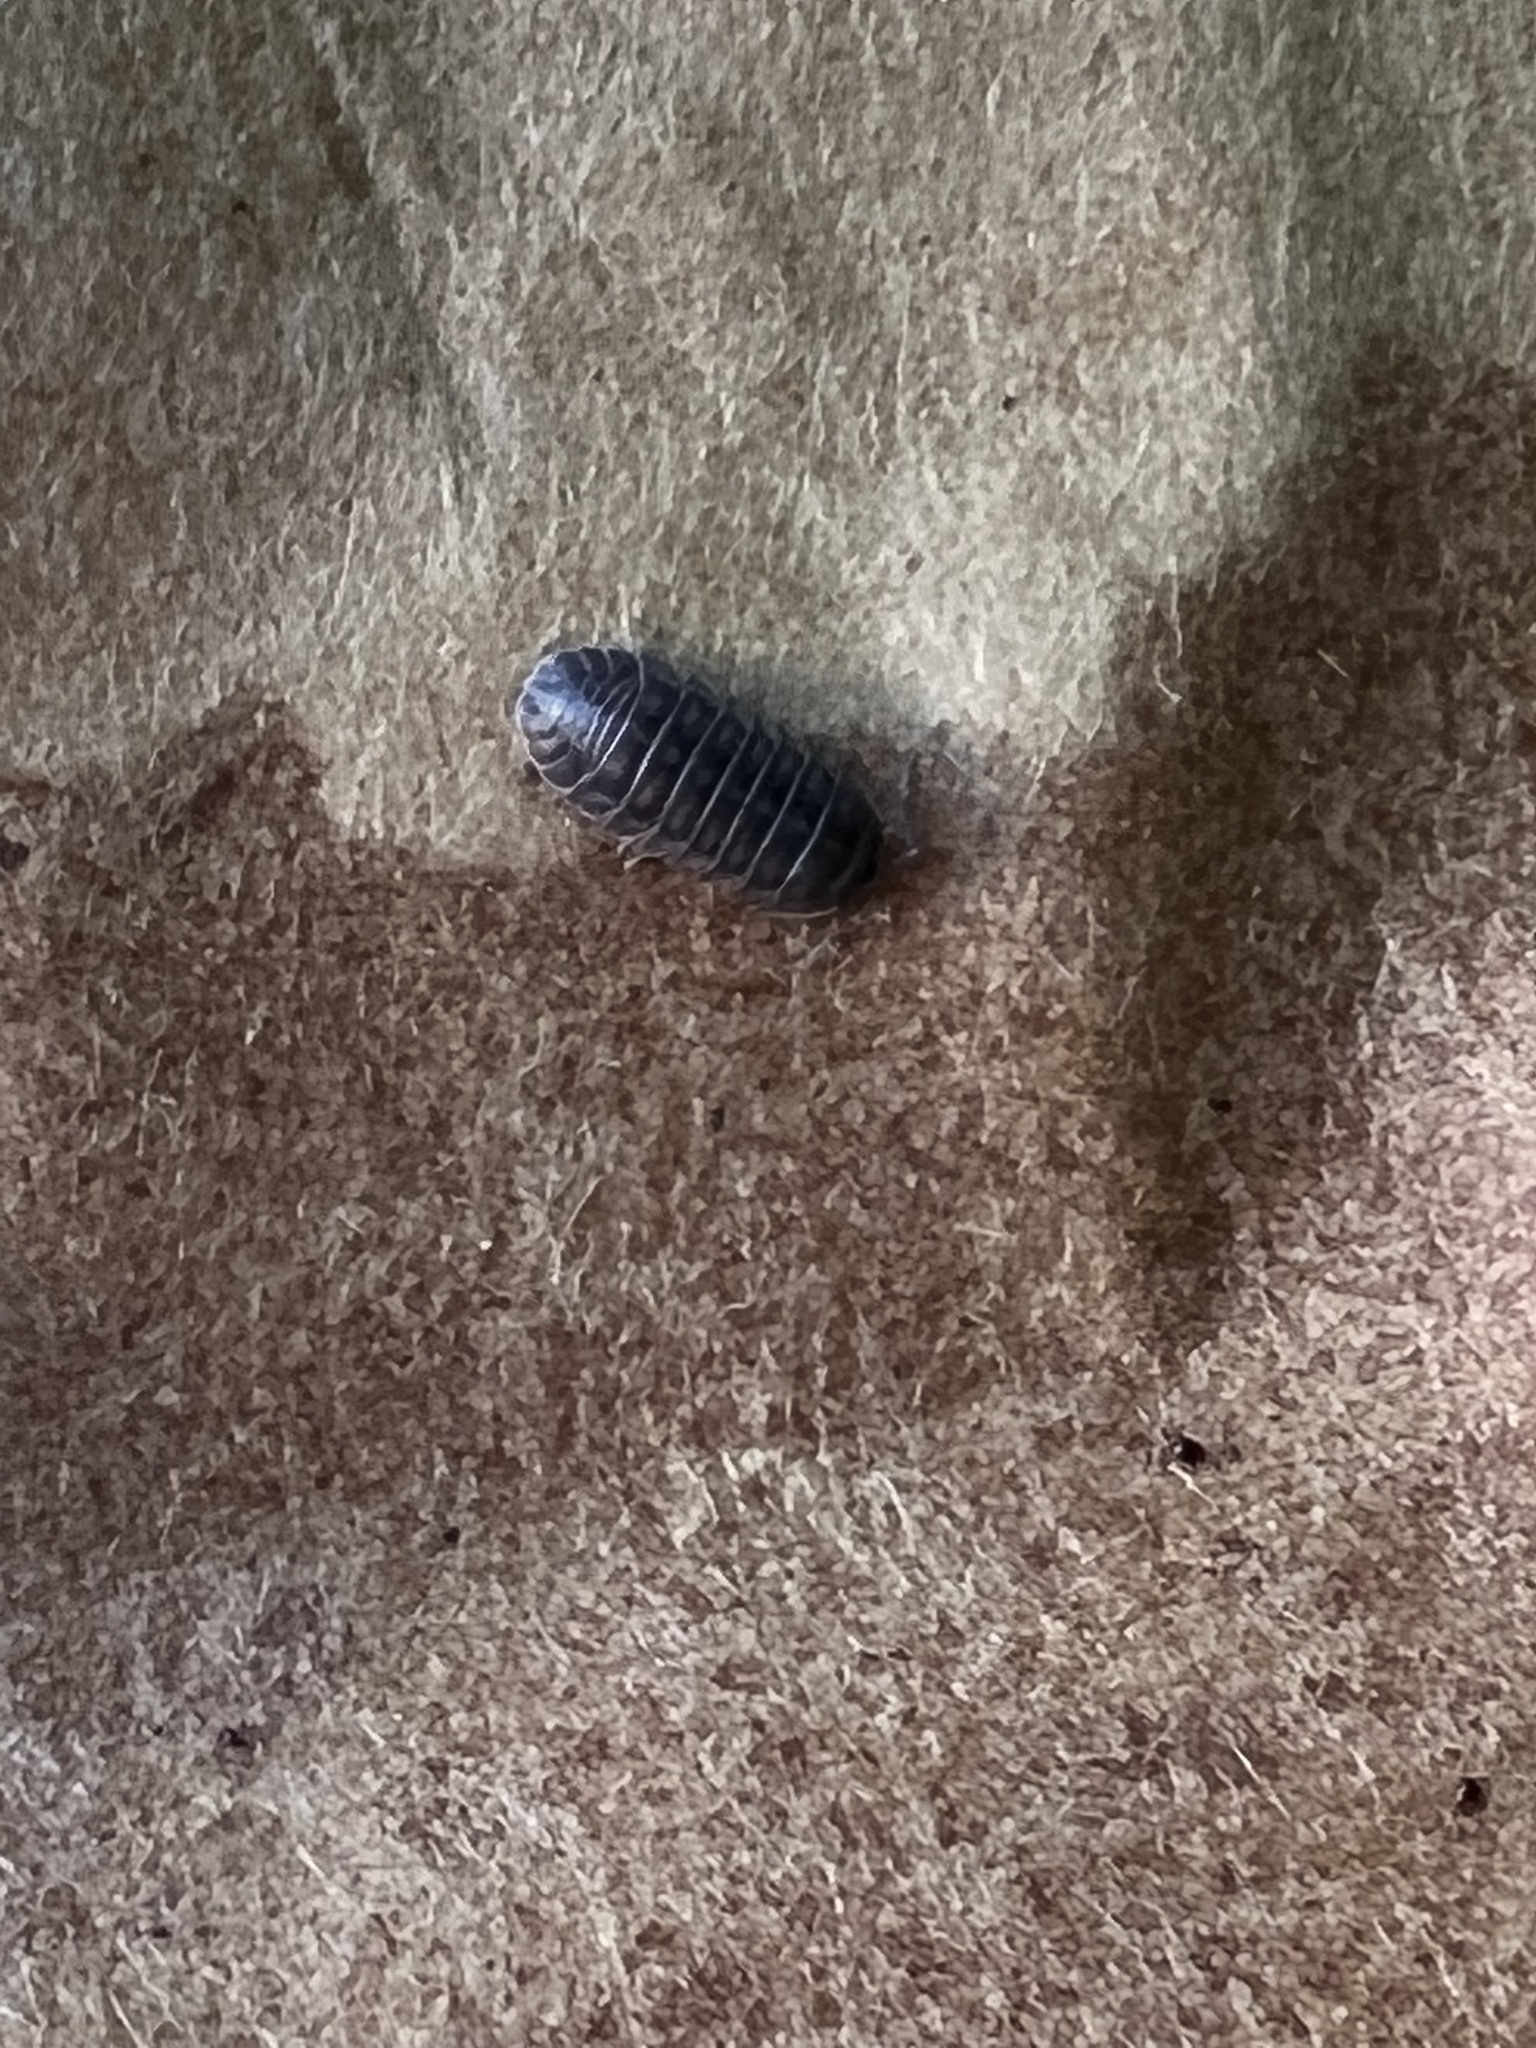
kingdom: Animalia
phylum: Arthropoda
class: Malacostraca
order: Isopoda
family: Armadillidiidae
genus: Armadillidium
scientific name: Armadillidium nasatum
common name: Isopod
